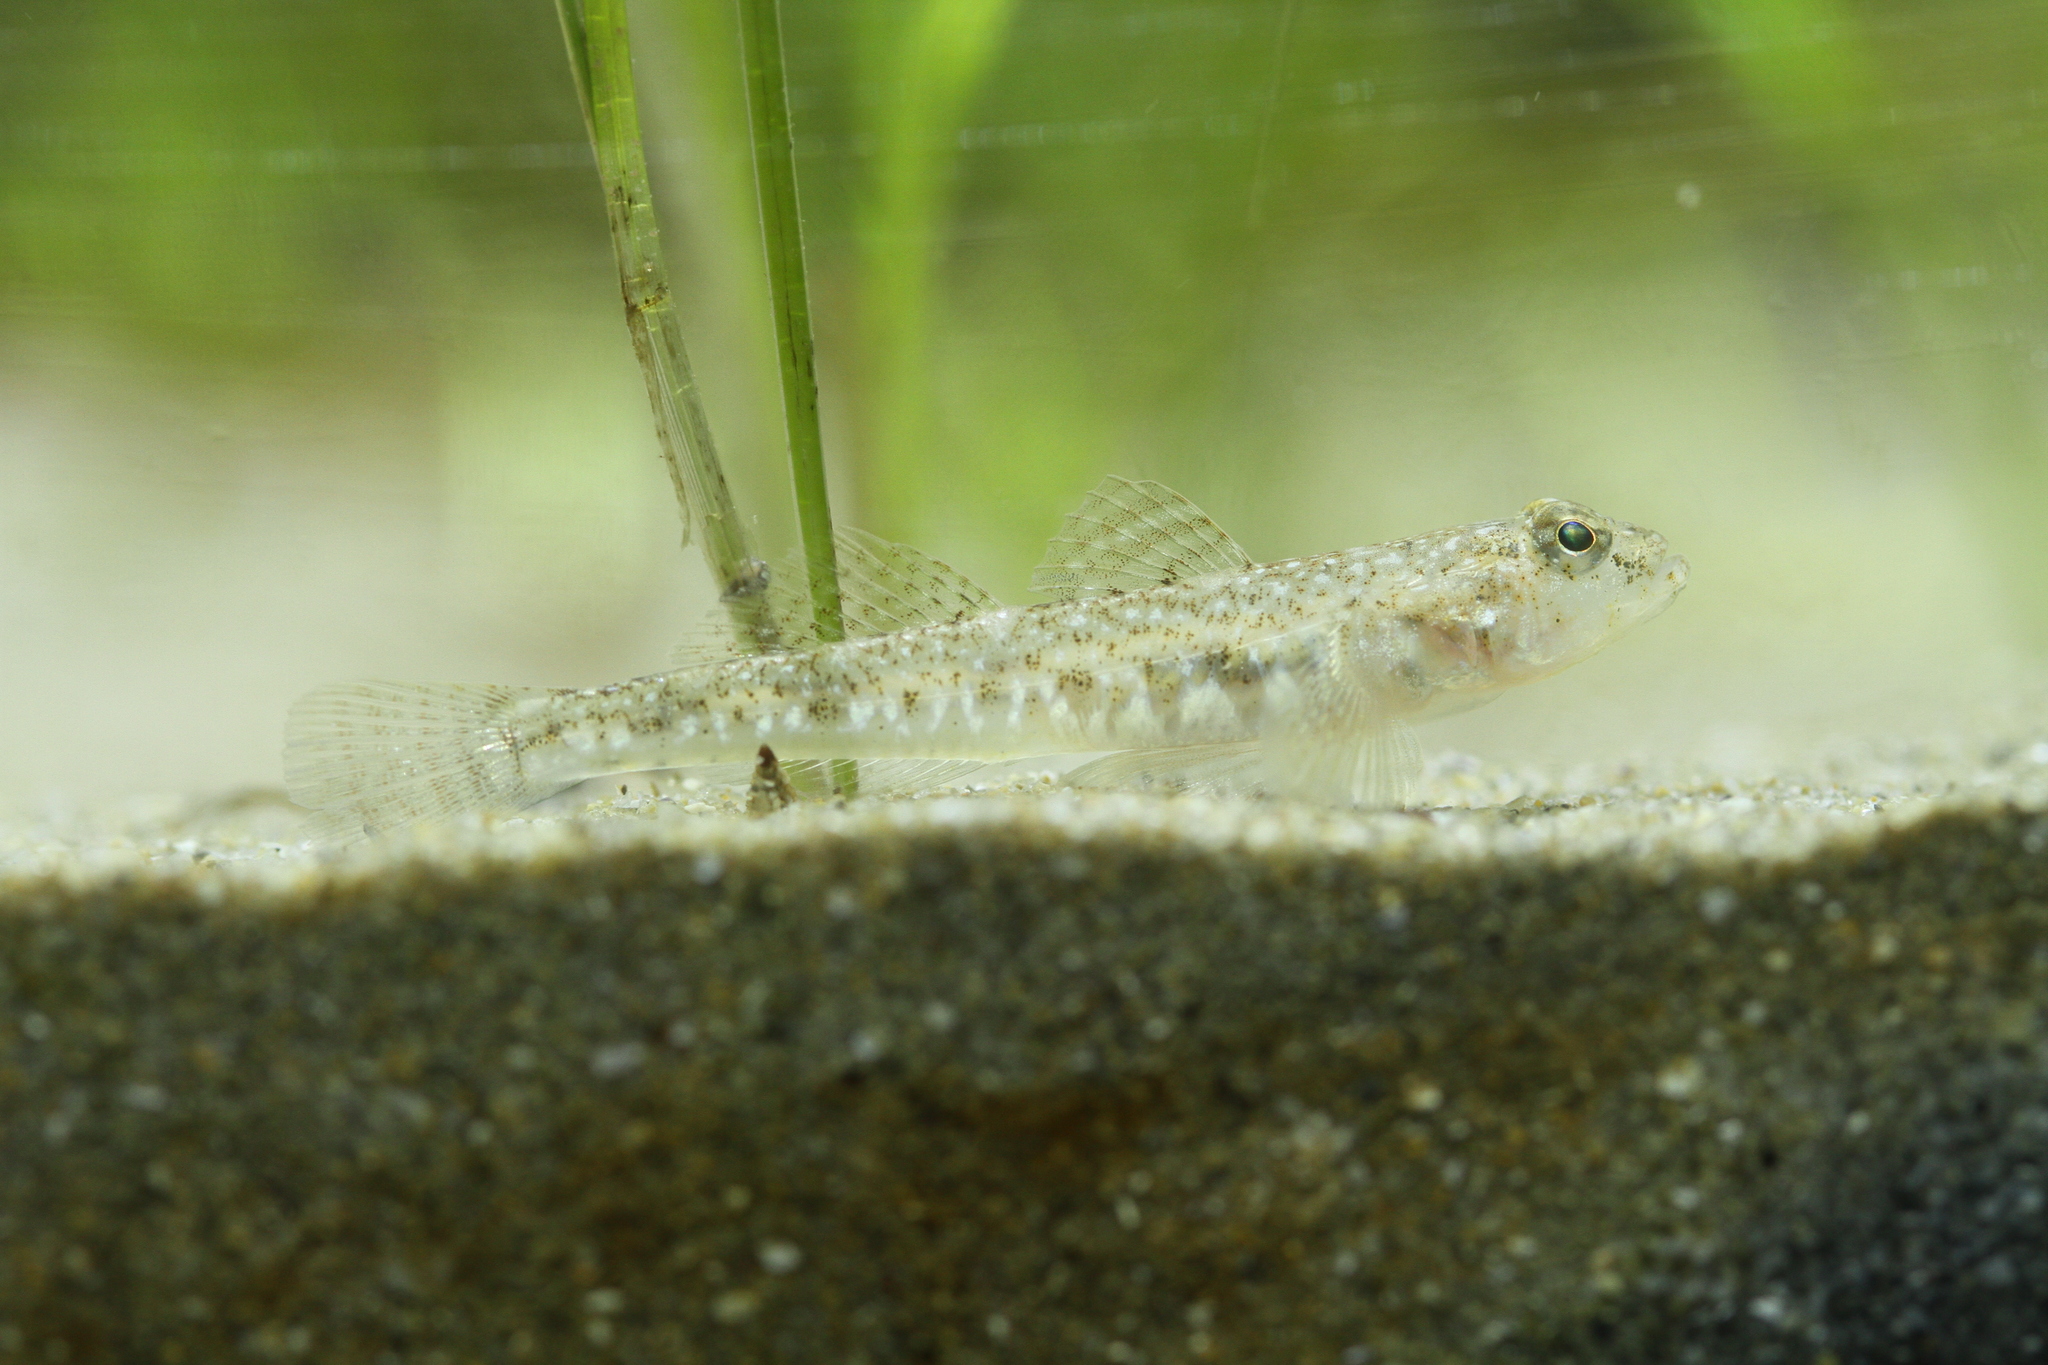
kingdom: Animalia
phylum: Chordata
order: Perciformes
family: Gobiidae
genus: Pomatoschistus
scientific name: Pomatoschistus marmoratus
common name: Marbled goby
